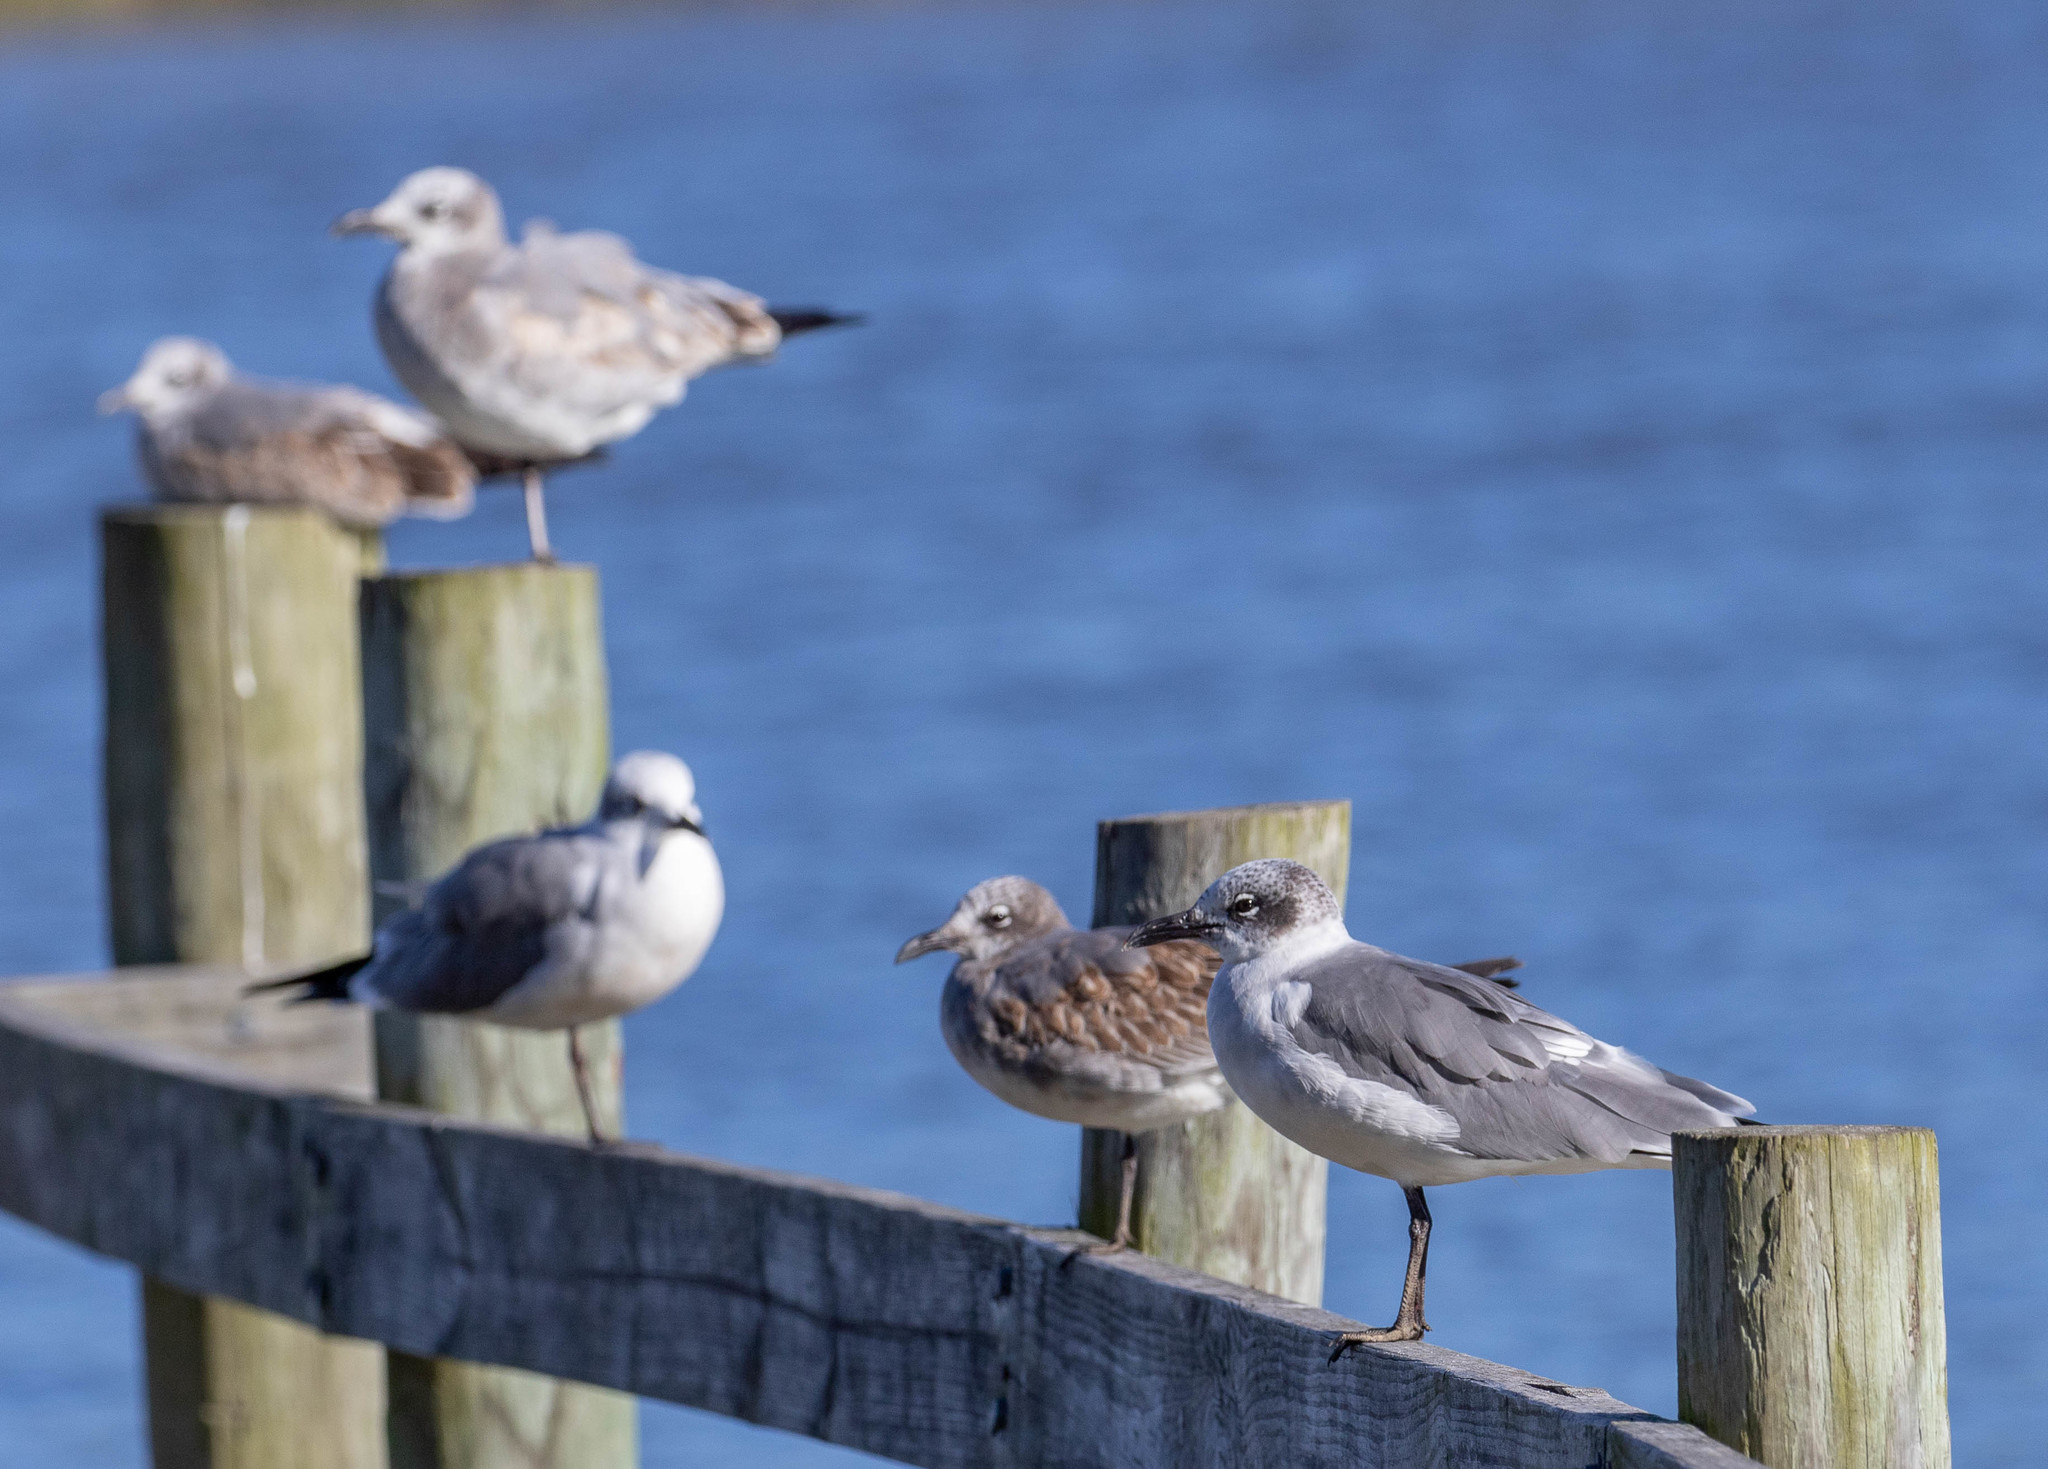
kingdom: Animalia
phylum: Chordata
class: Aves
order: Charadriiformes
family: Laridae
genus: Leucophaeus
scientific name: Leucophaeus atricilla
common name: Laughing gull
